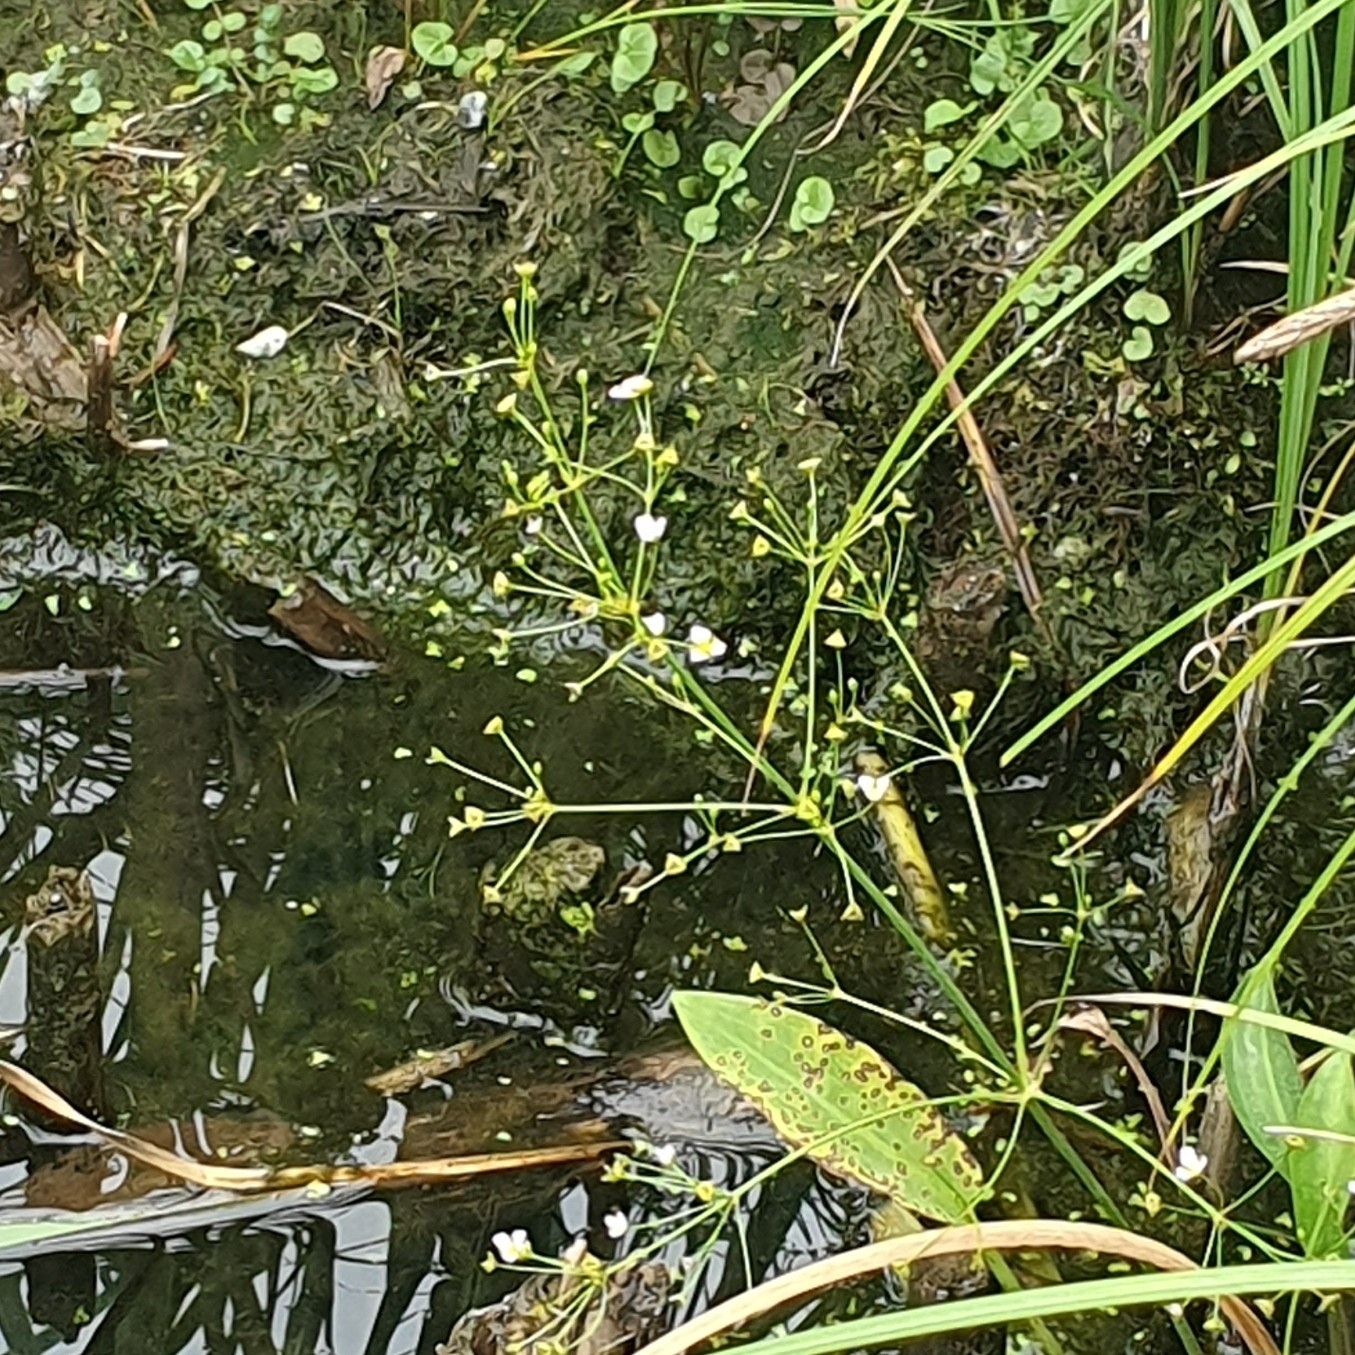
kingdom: Plantae
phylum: Tracheophyta
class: Liliopsida
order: Alismatales
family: Alismataceae
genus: Alisma
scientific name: Alisma plantago-aquatica
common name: Water-plantain
